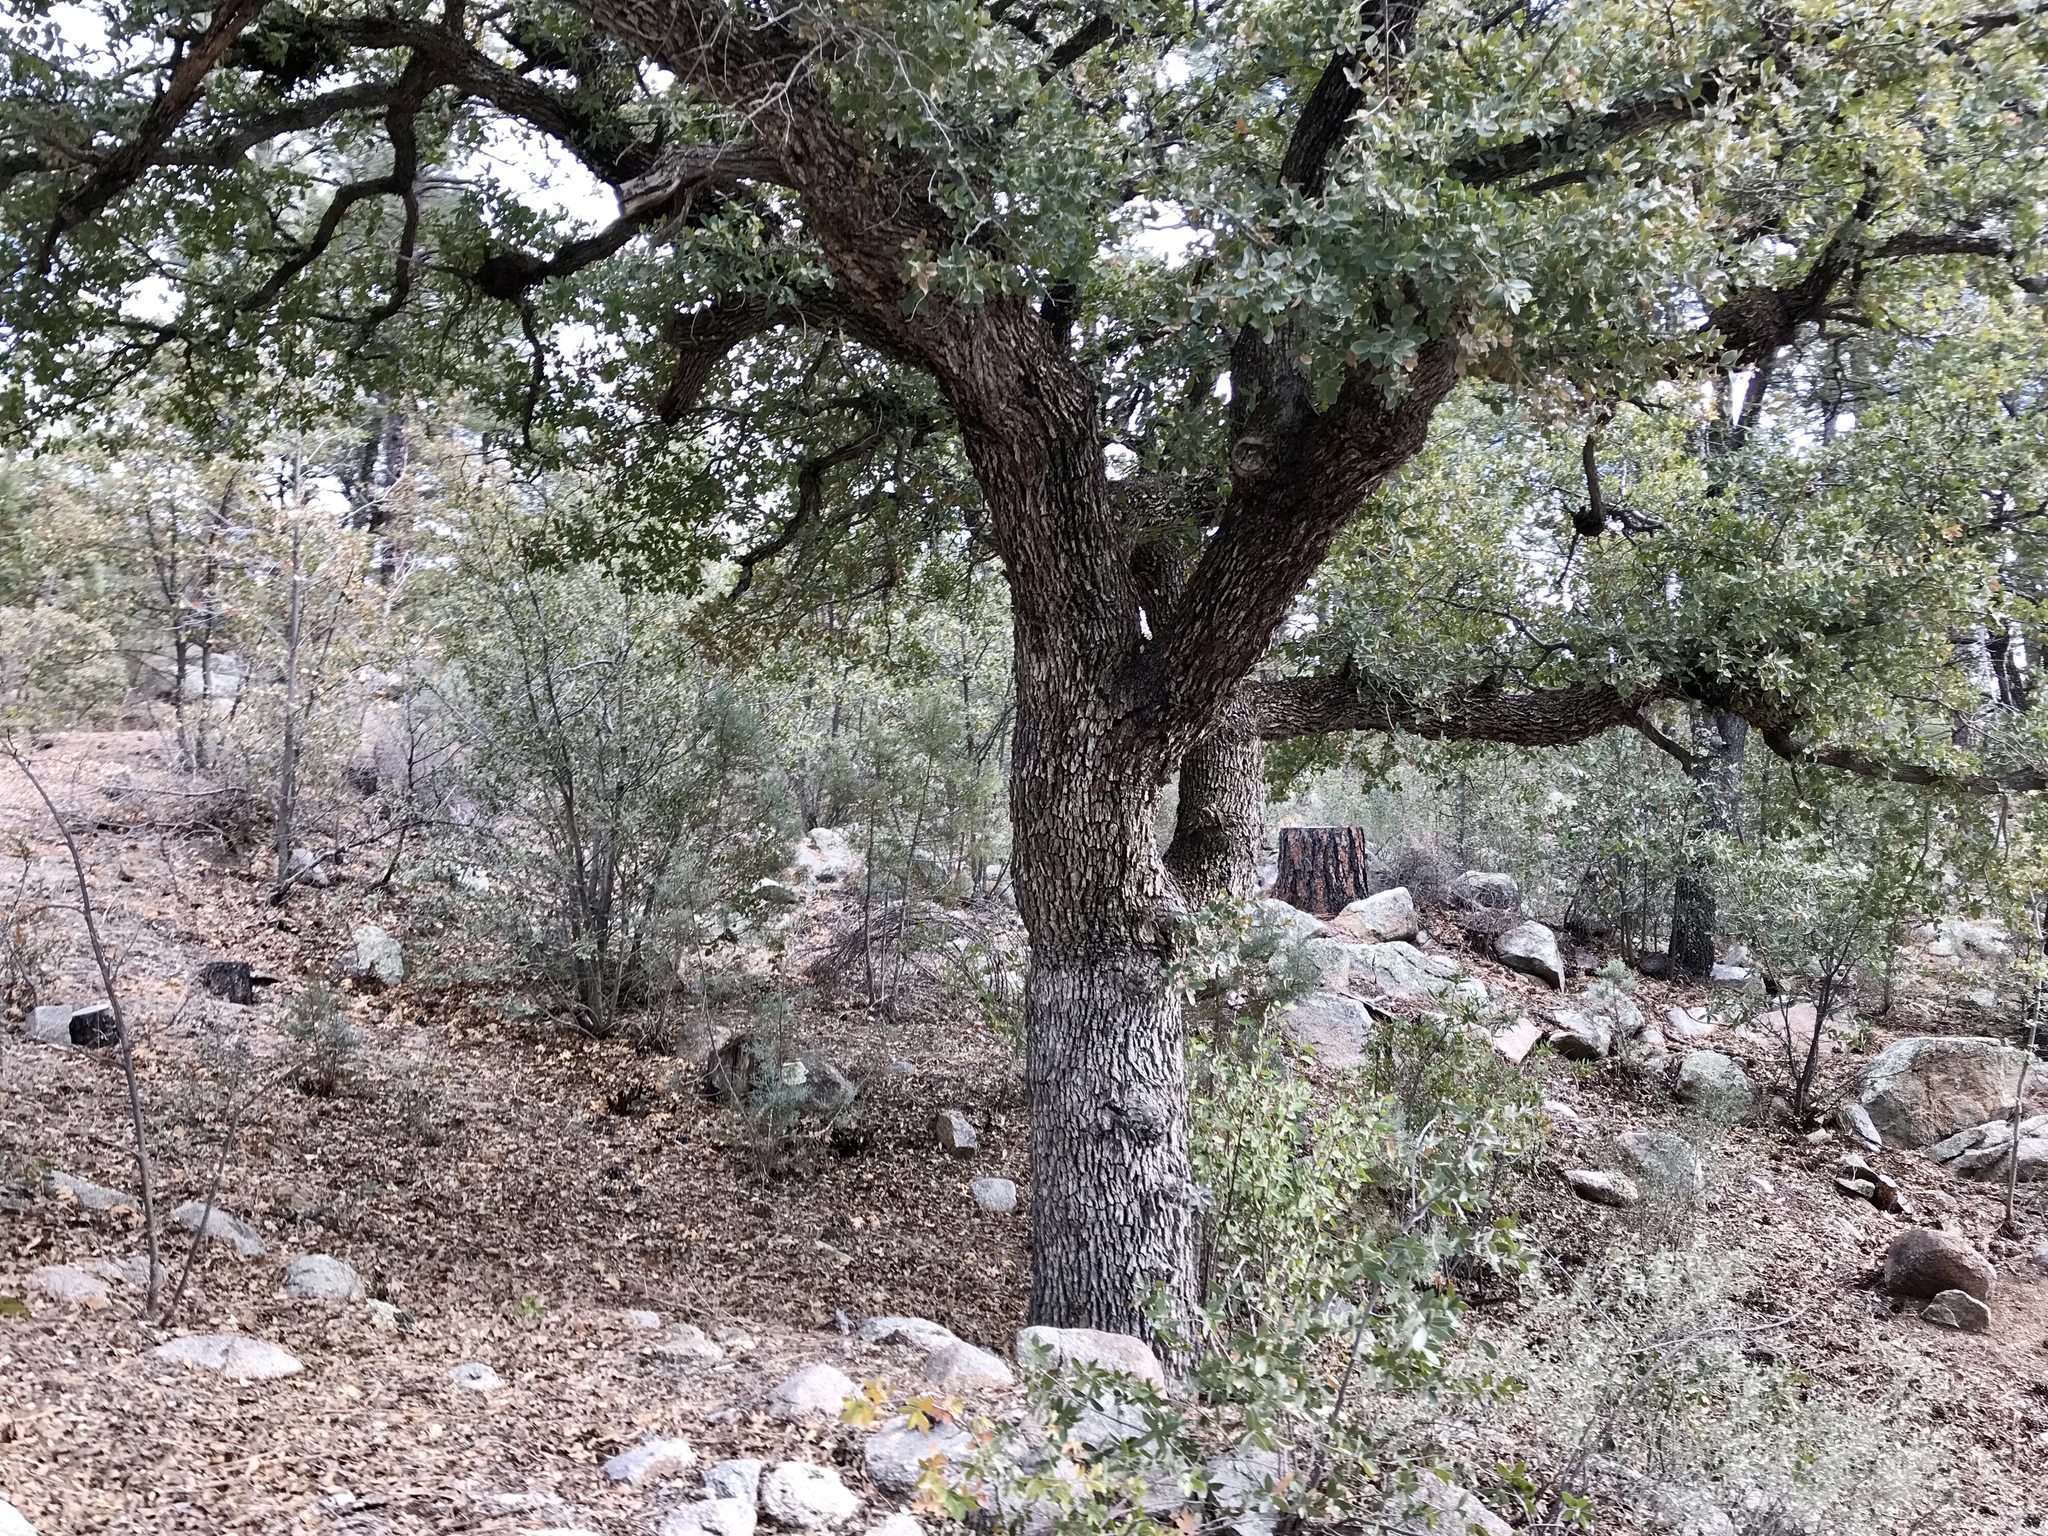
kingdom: Plantae
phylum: Tracheophyta
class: Magnoliopsida
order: Fagales
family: Fagaceae
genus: Quercus
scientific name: Quercus arizonica
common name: Arizona white oak
